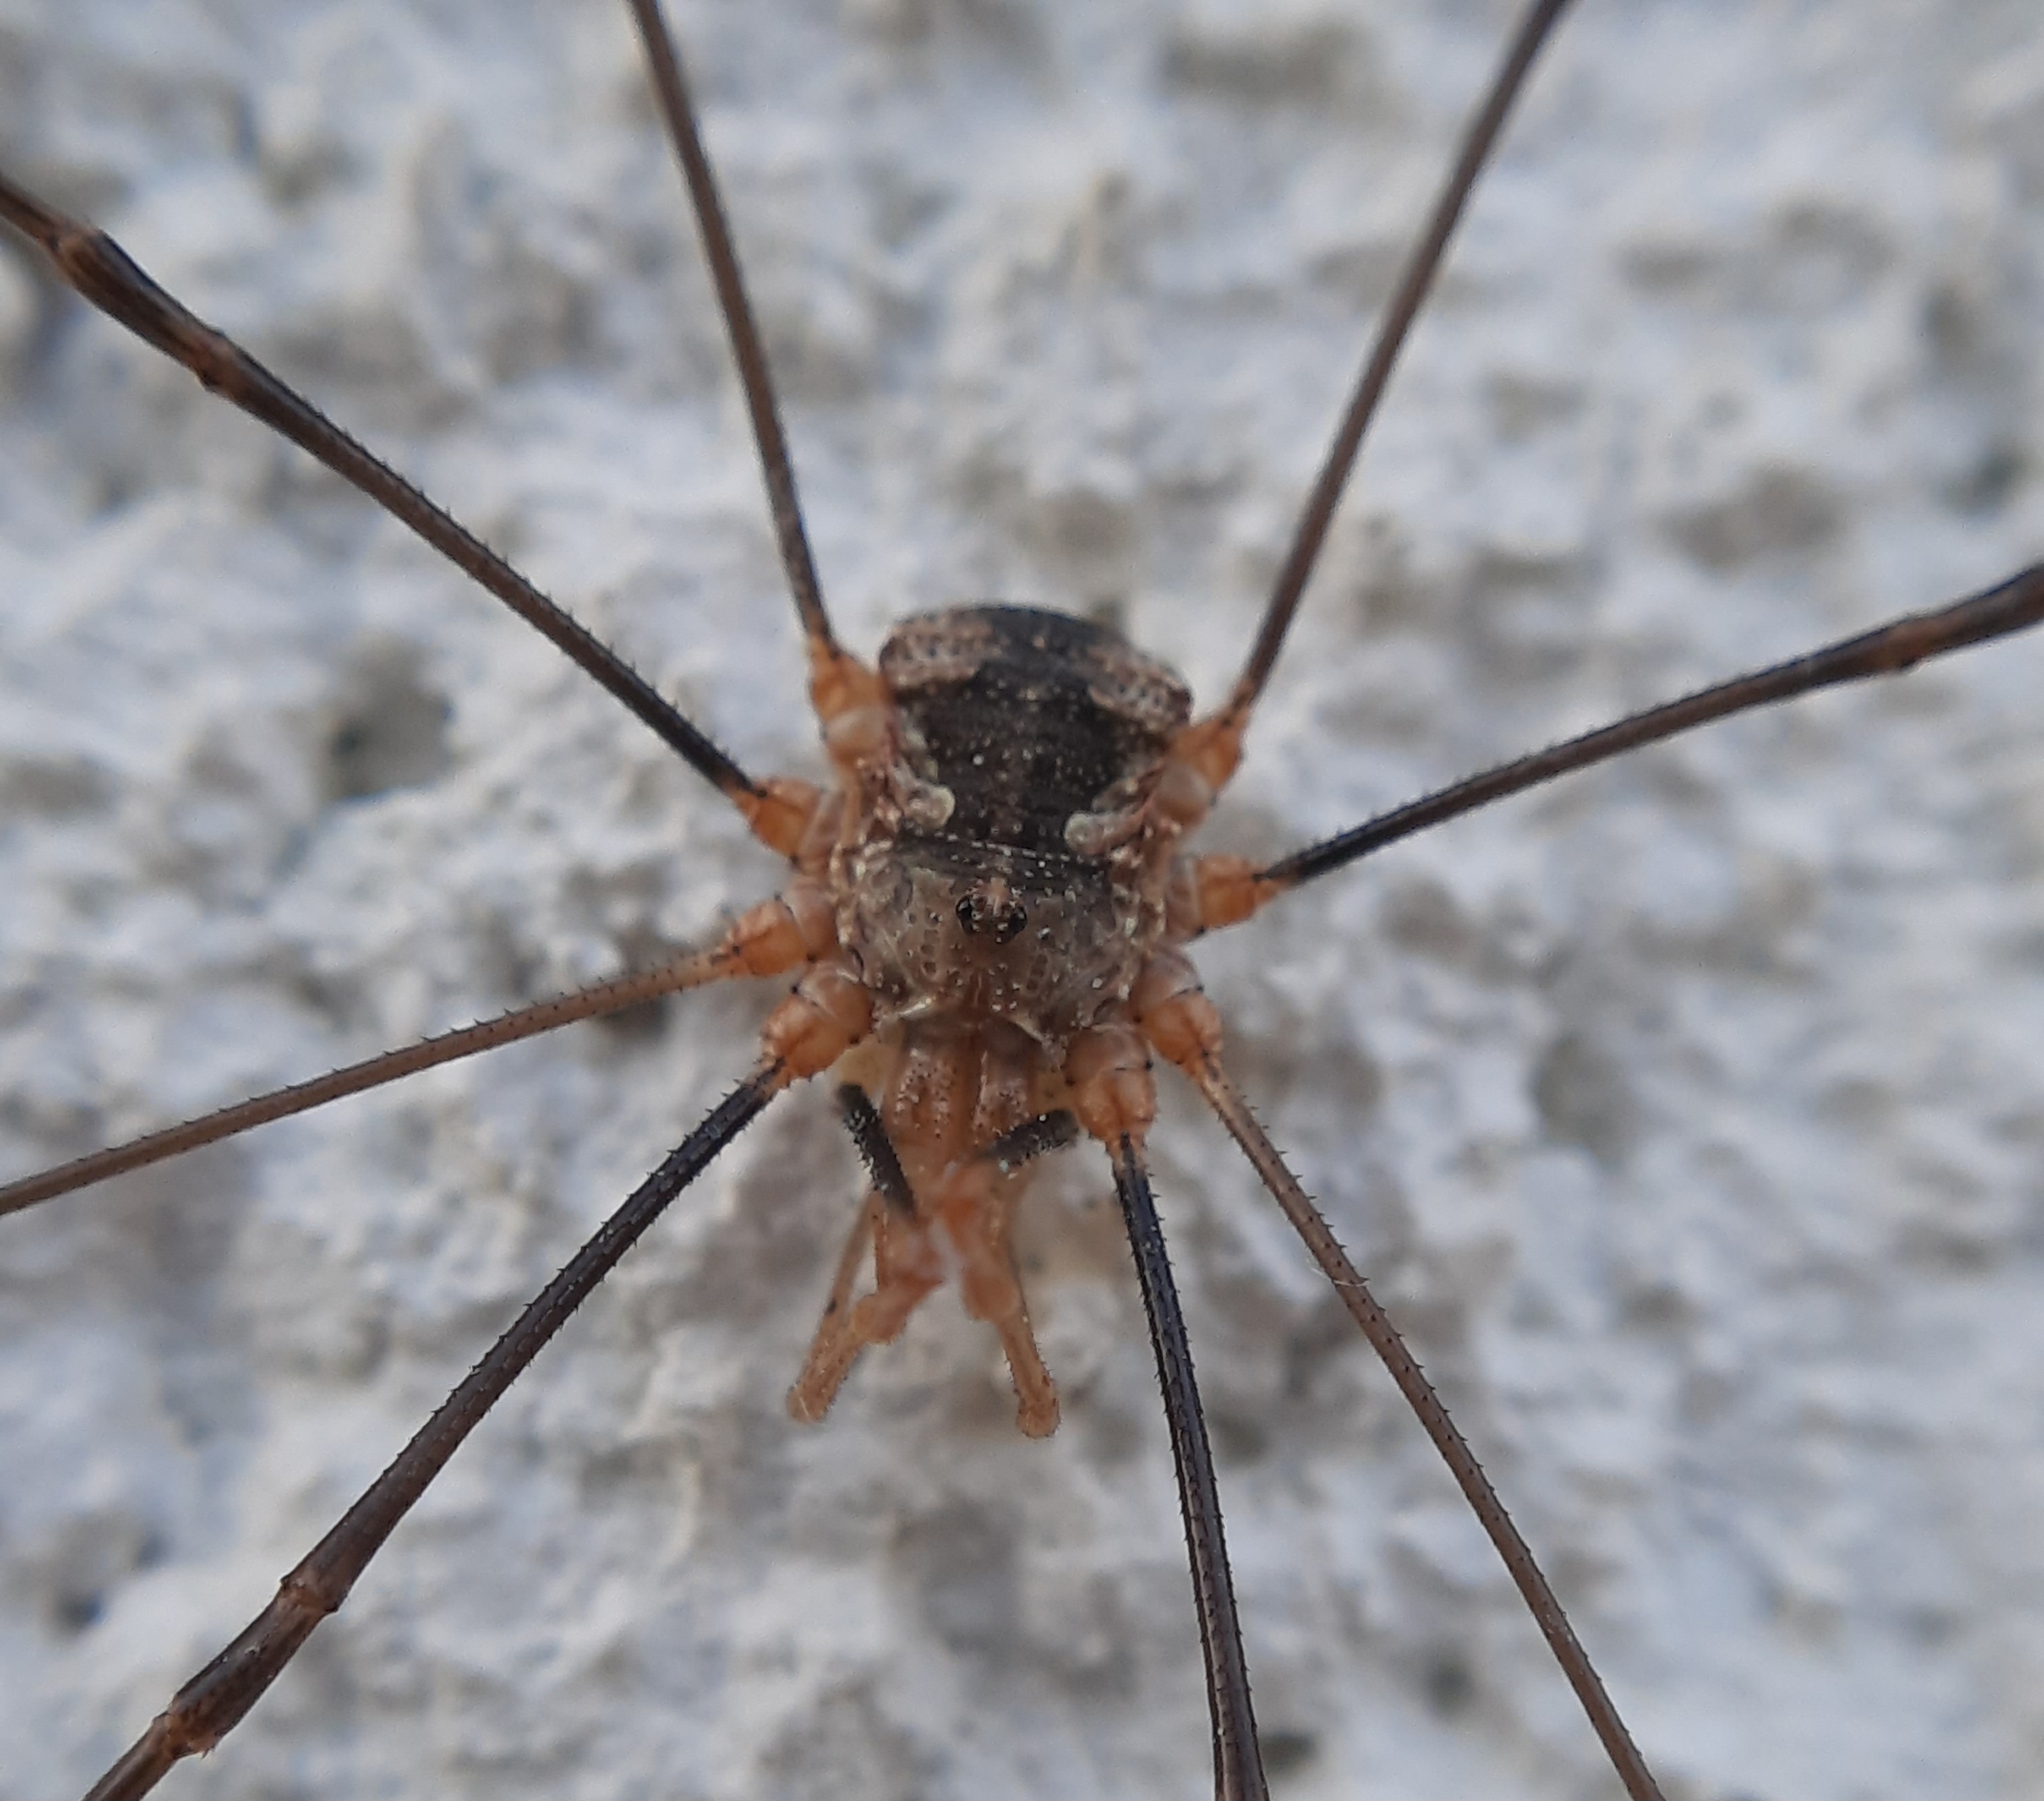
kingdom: Animalia
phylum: Arthropoda
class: Arachnida
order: Opiliones
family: Phalangiidae
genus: Phalangium
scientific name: Phalangium opilio
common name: Daddy longleg
